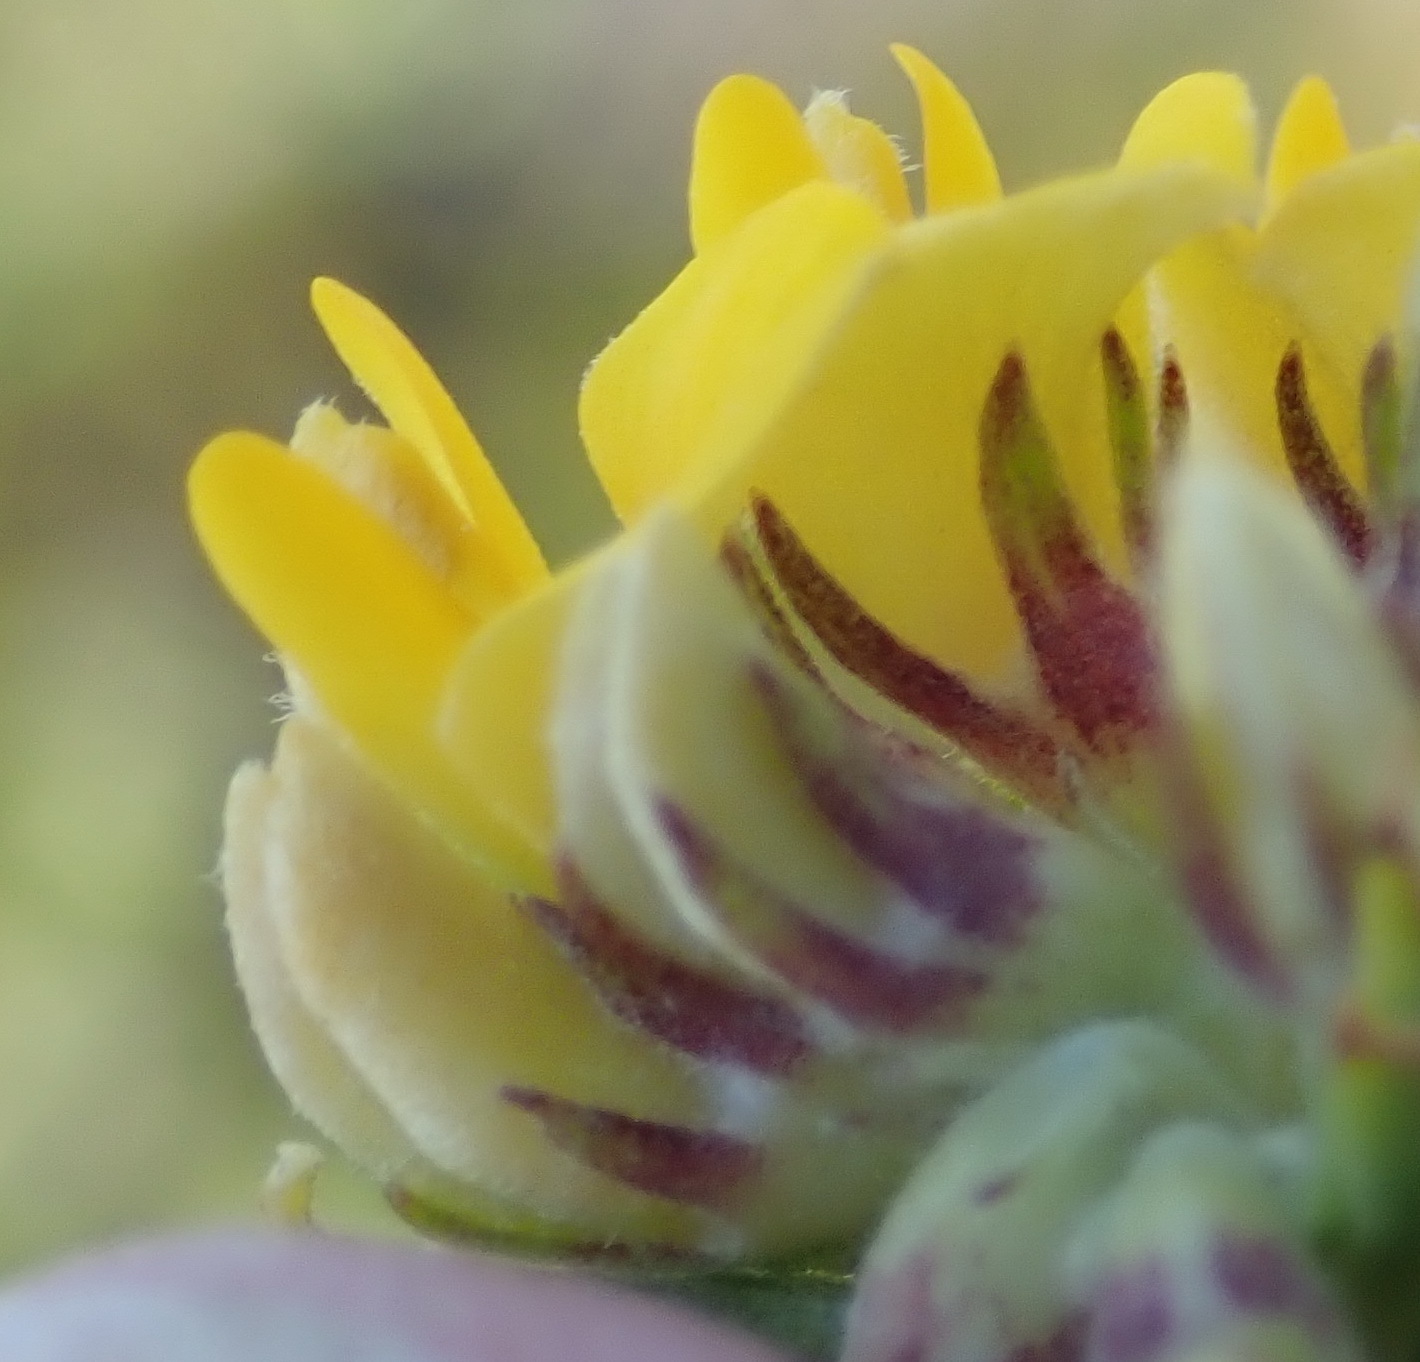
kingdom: Plantae
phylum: Tracheophyta
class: Magnoliopsida
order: Fabales
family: Fabaceae
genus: Aspalathus
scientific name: Aspalathus securifolia
